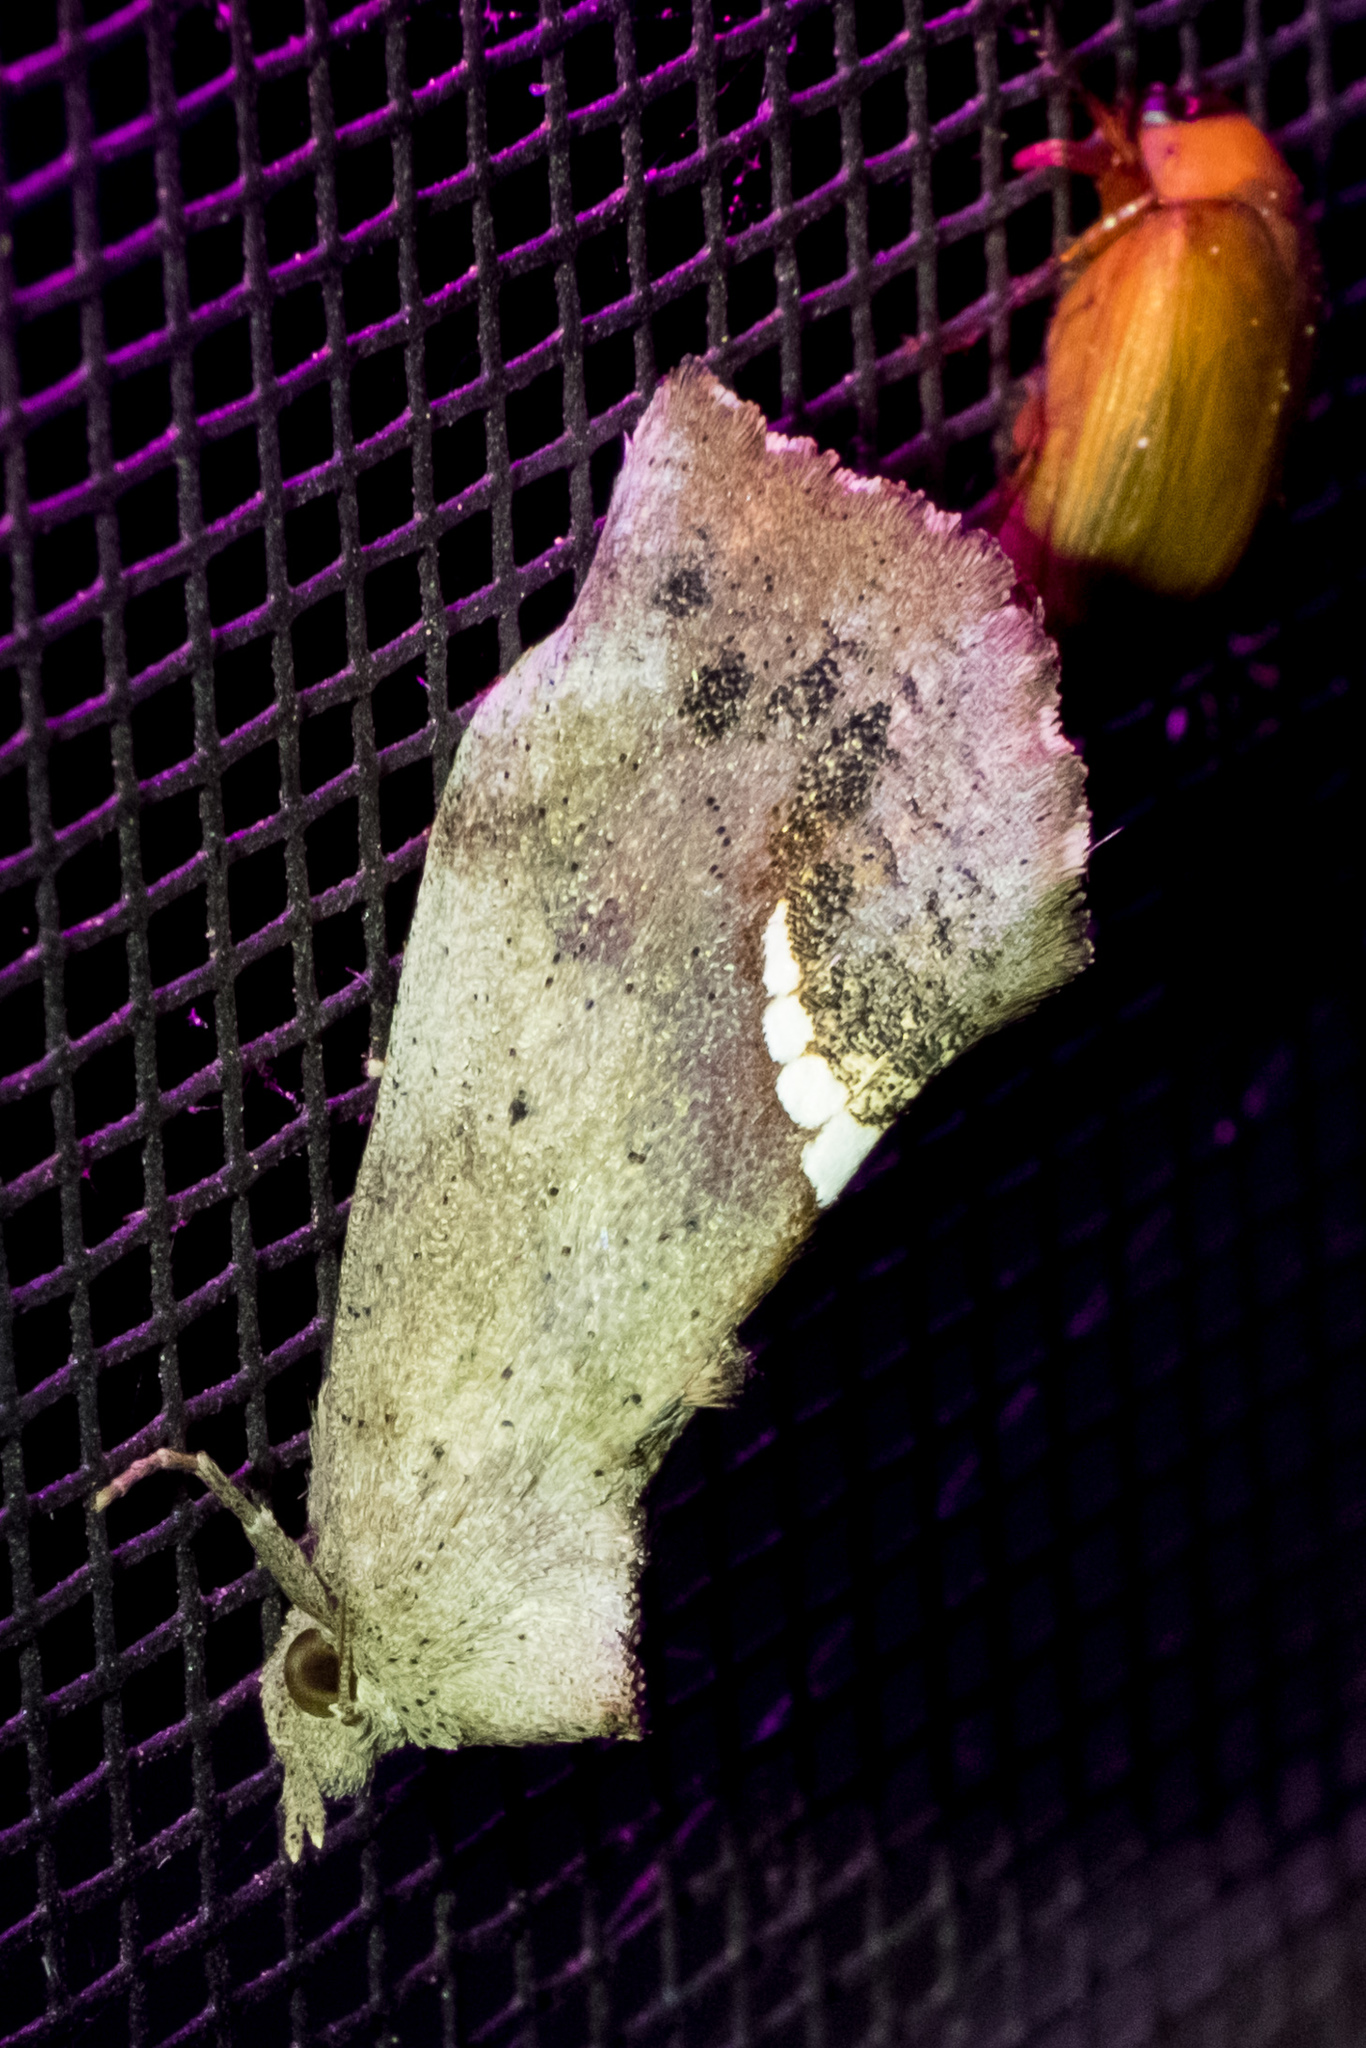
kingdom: Animalia
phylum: Arthropoda
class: Insecta
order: Lepidoptera
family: Erebidae
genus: Hypsoropha
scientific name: Hypsoropha hormos
